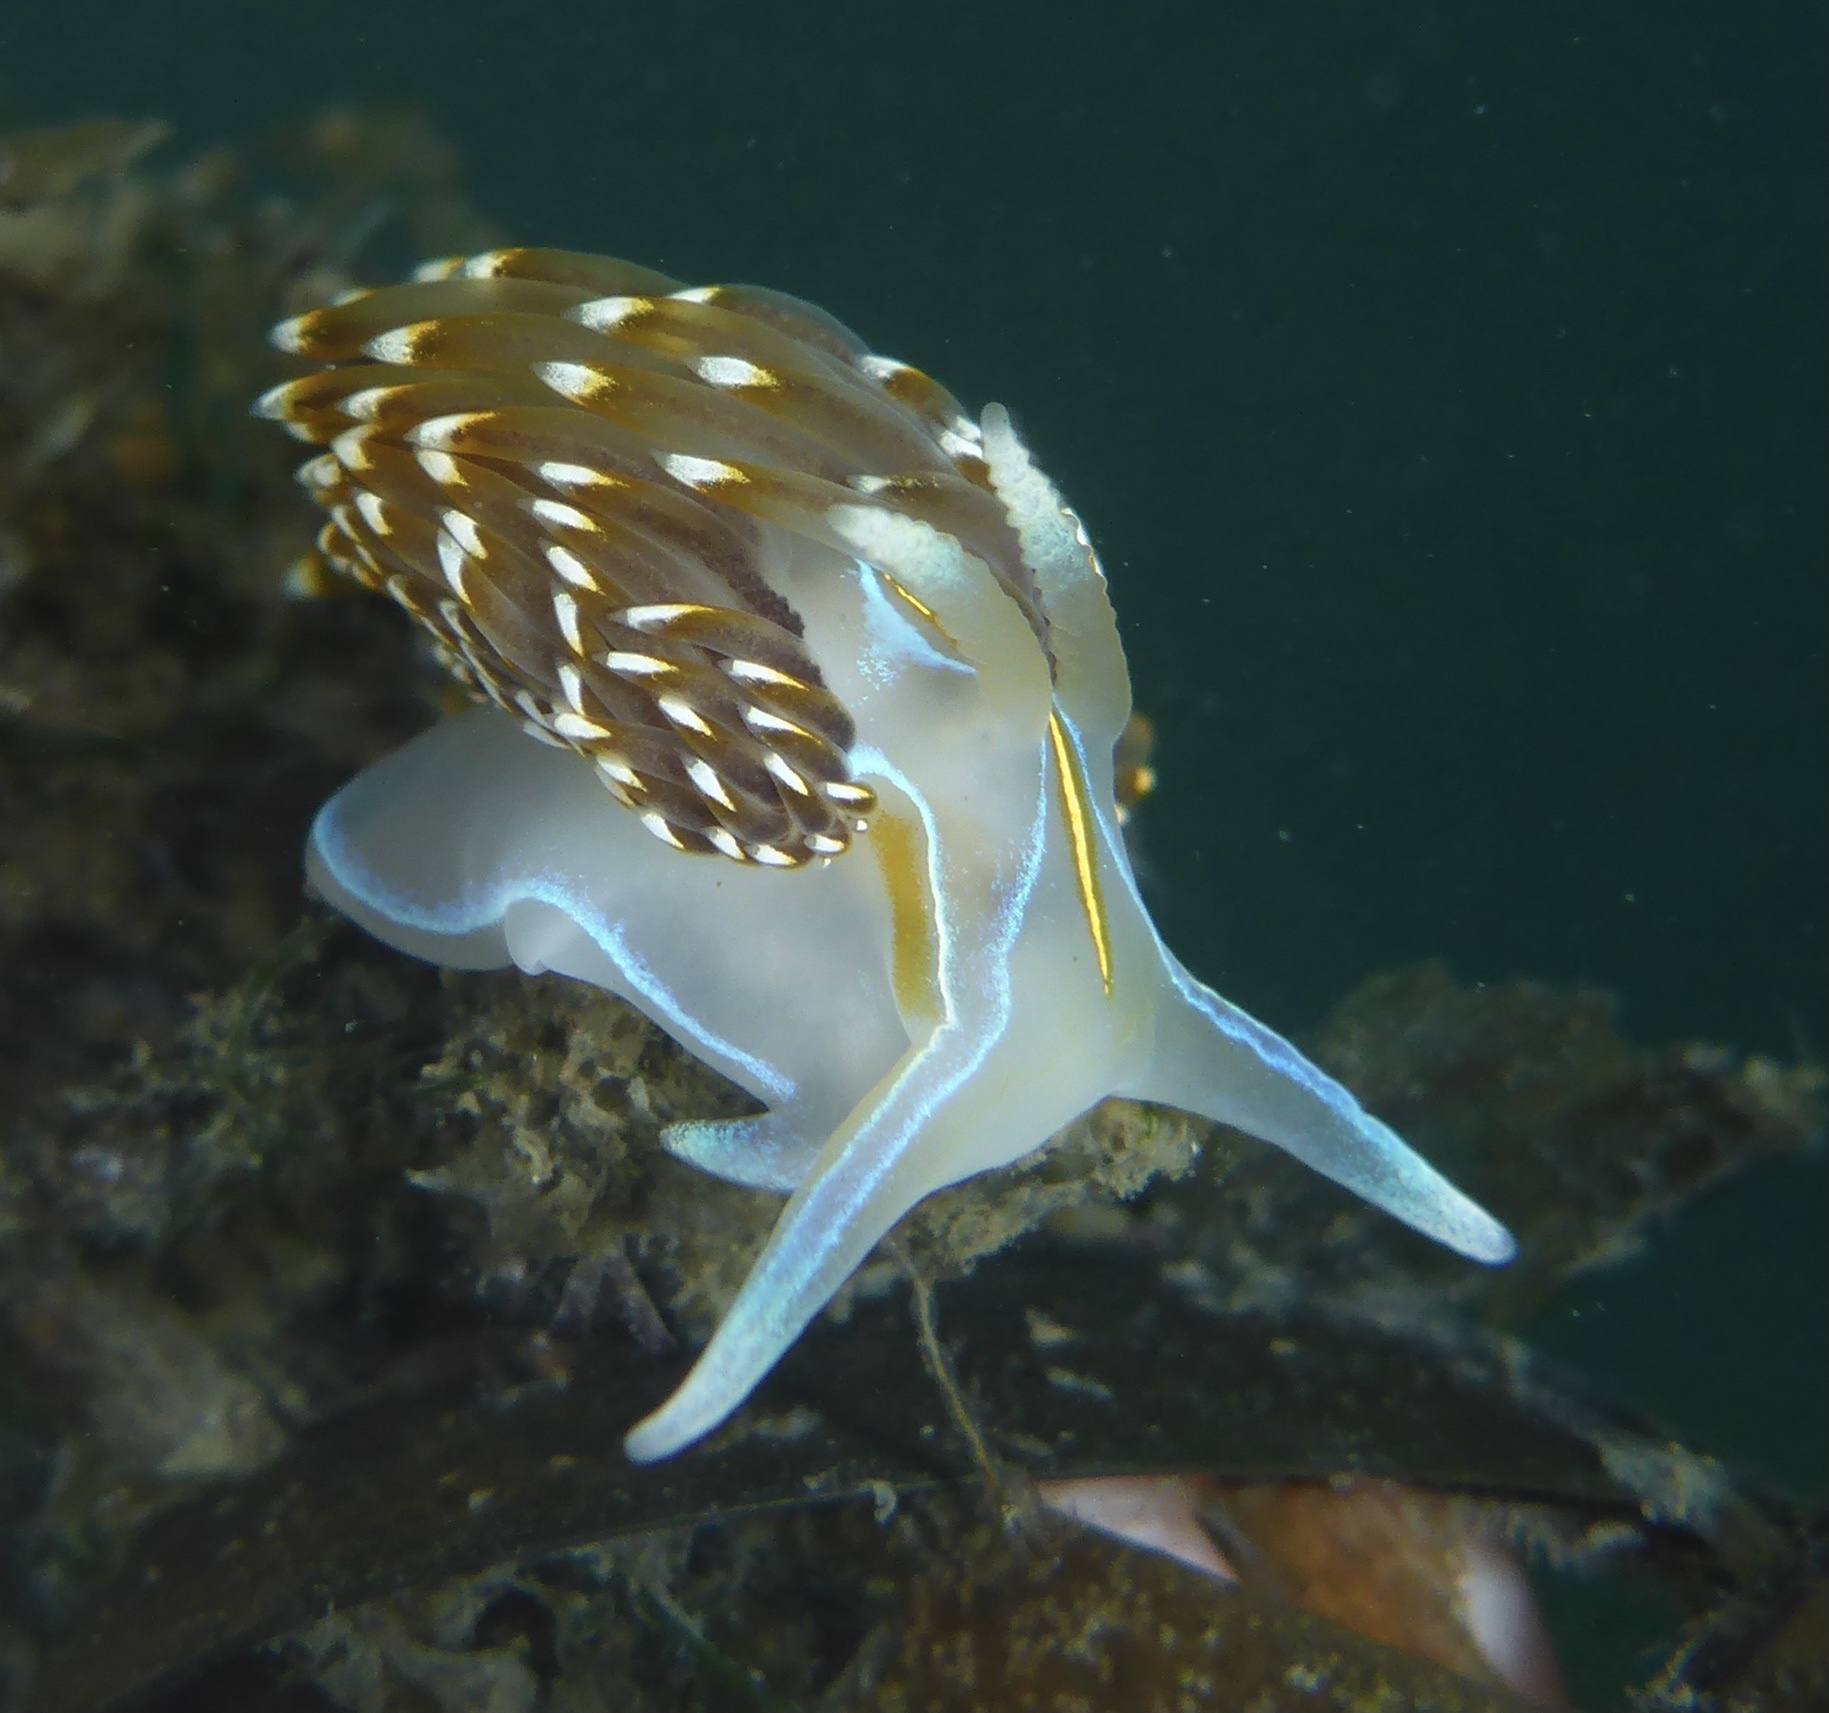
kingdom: Animalia
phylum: Mollusca
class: Gastropoda
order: Nudibranchia
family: Myrrhinidae
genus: Hermissenda
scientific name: Hermissenda opalescens
